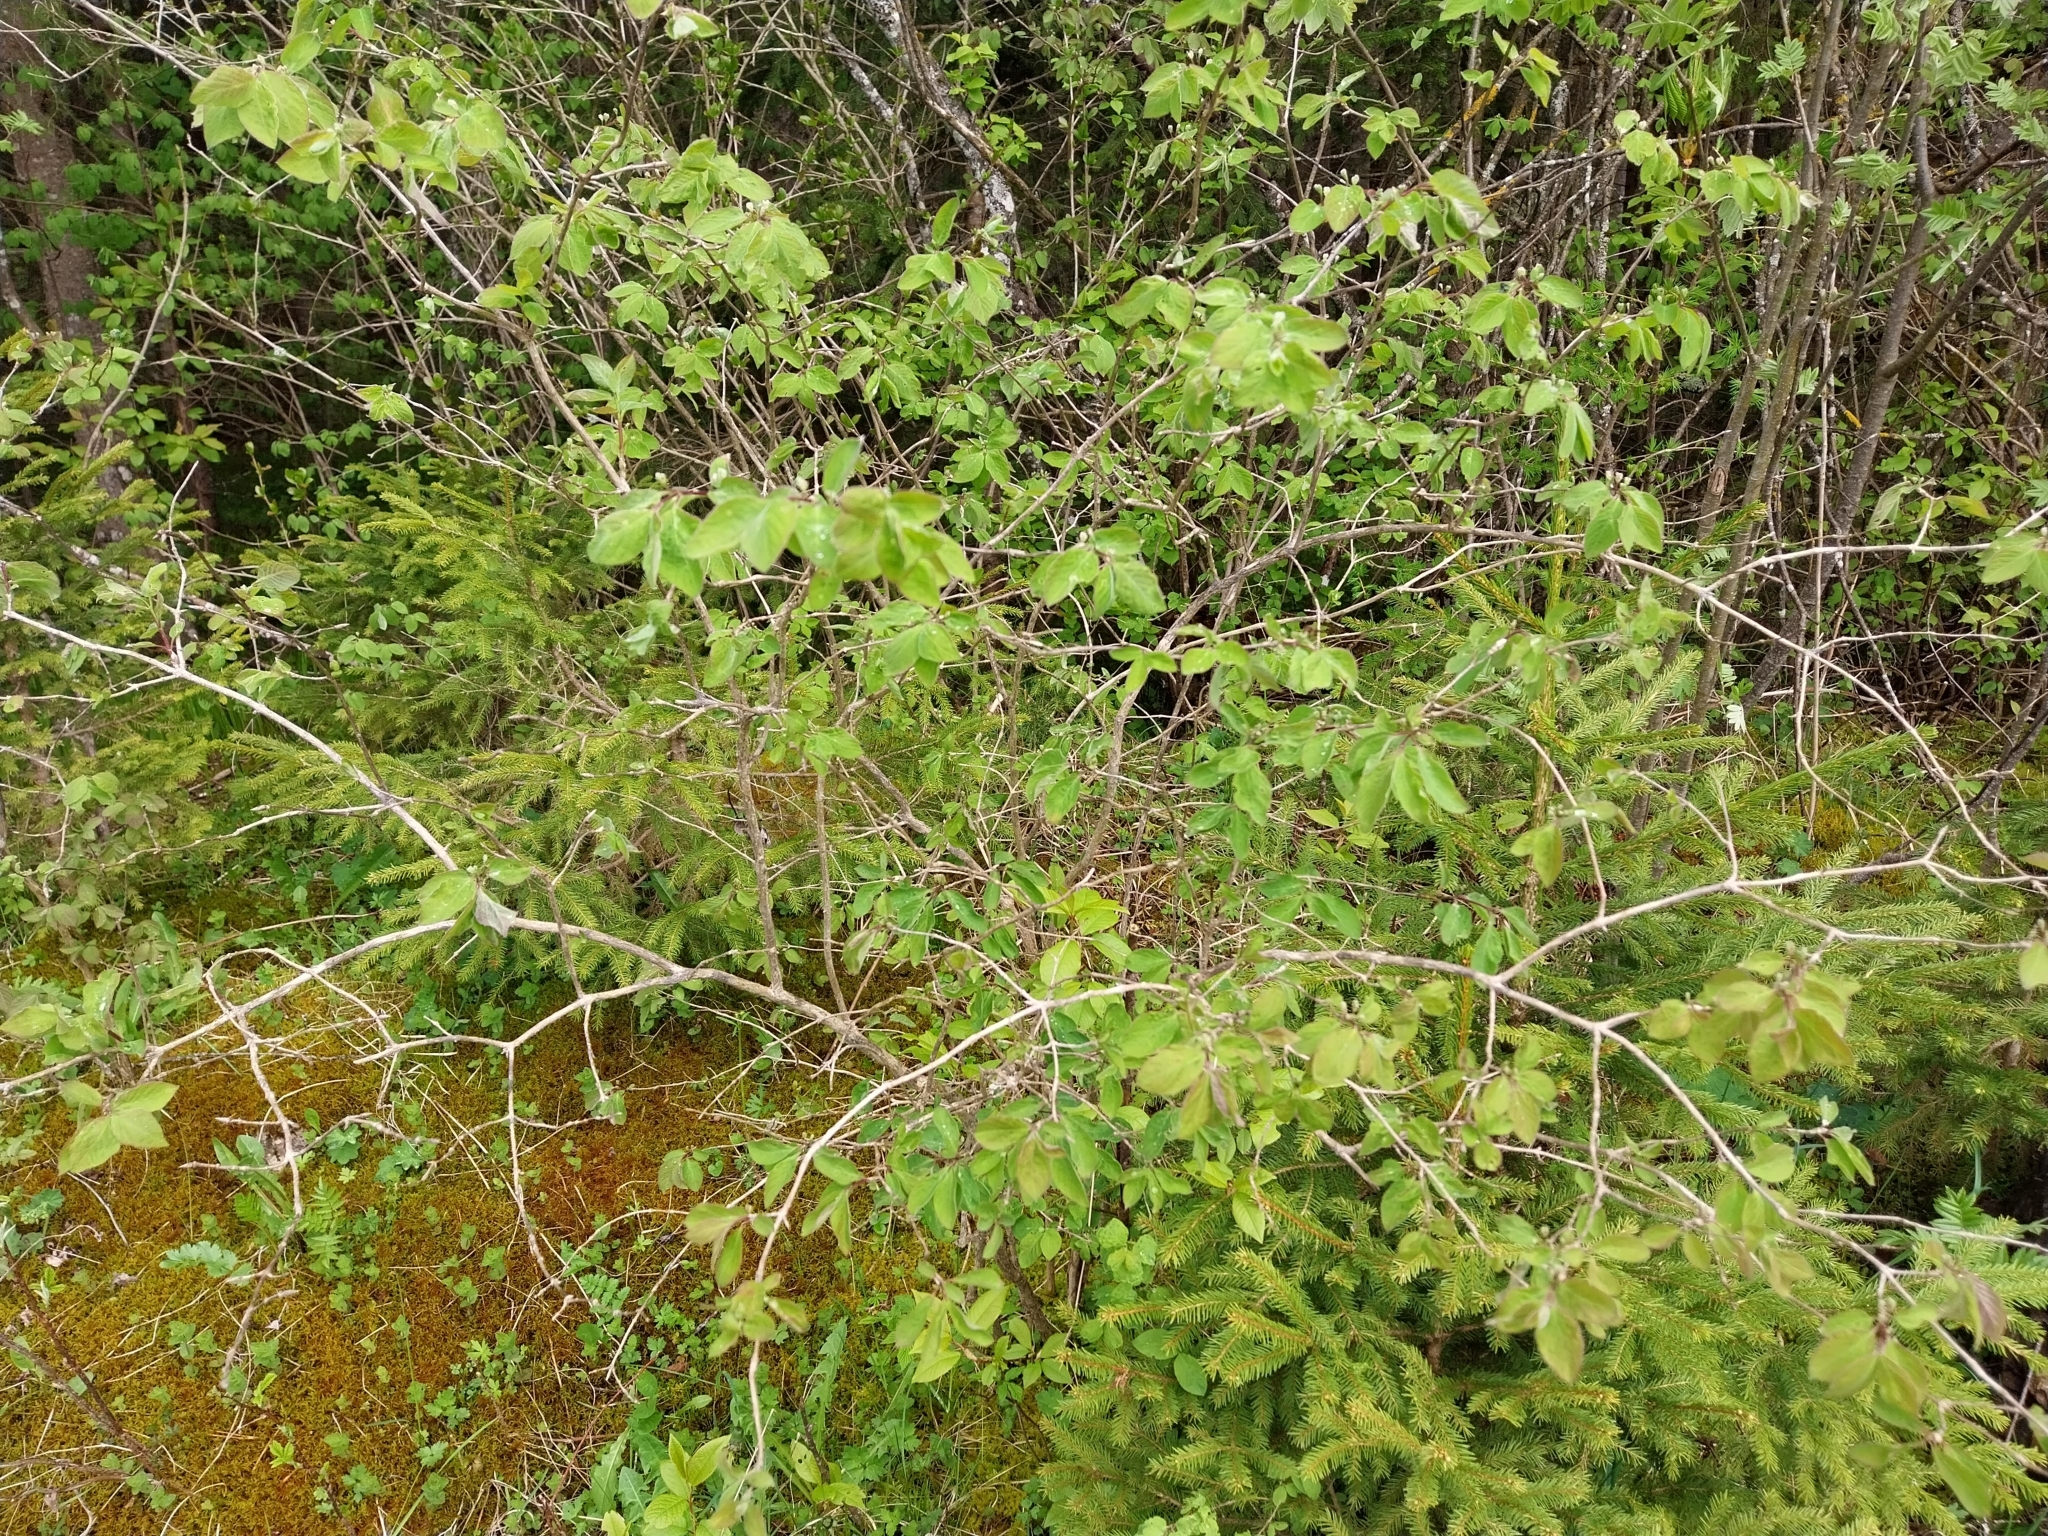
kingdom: Plantae
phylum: Tracheophyta
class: Magnoliopsida
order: Dipsacales
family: Caprifoliaceae
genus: Lonicera
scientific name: Lonicera xylosteum
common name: Fly honeysuckle
